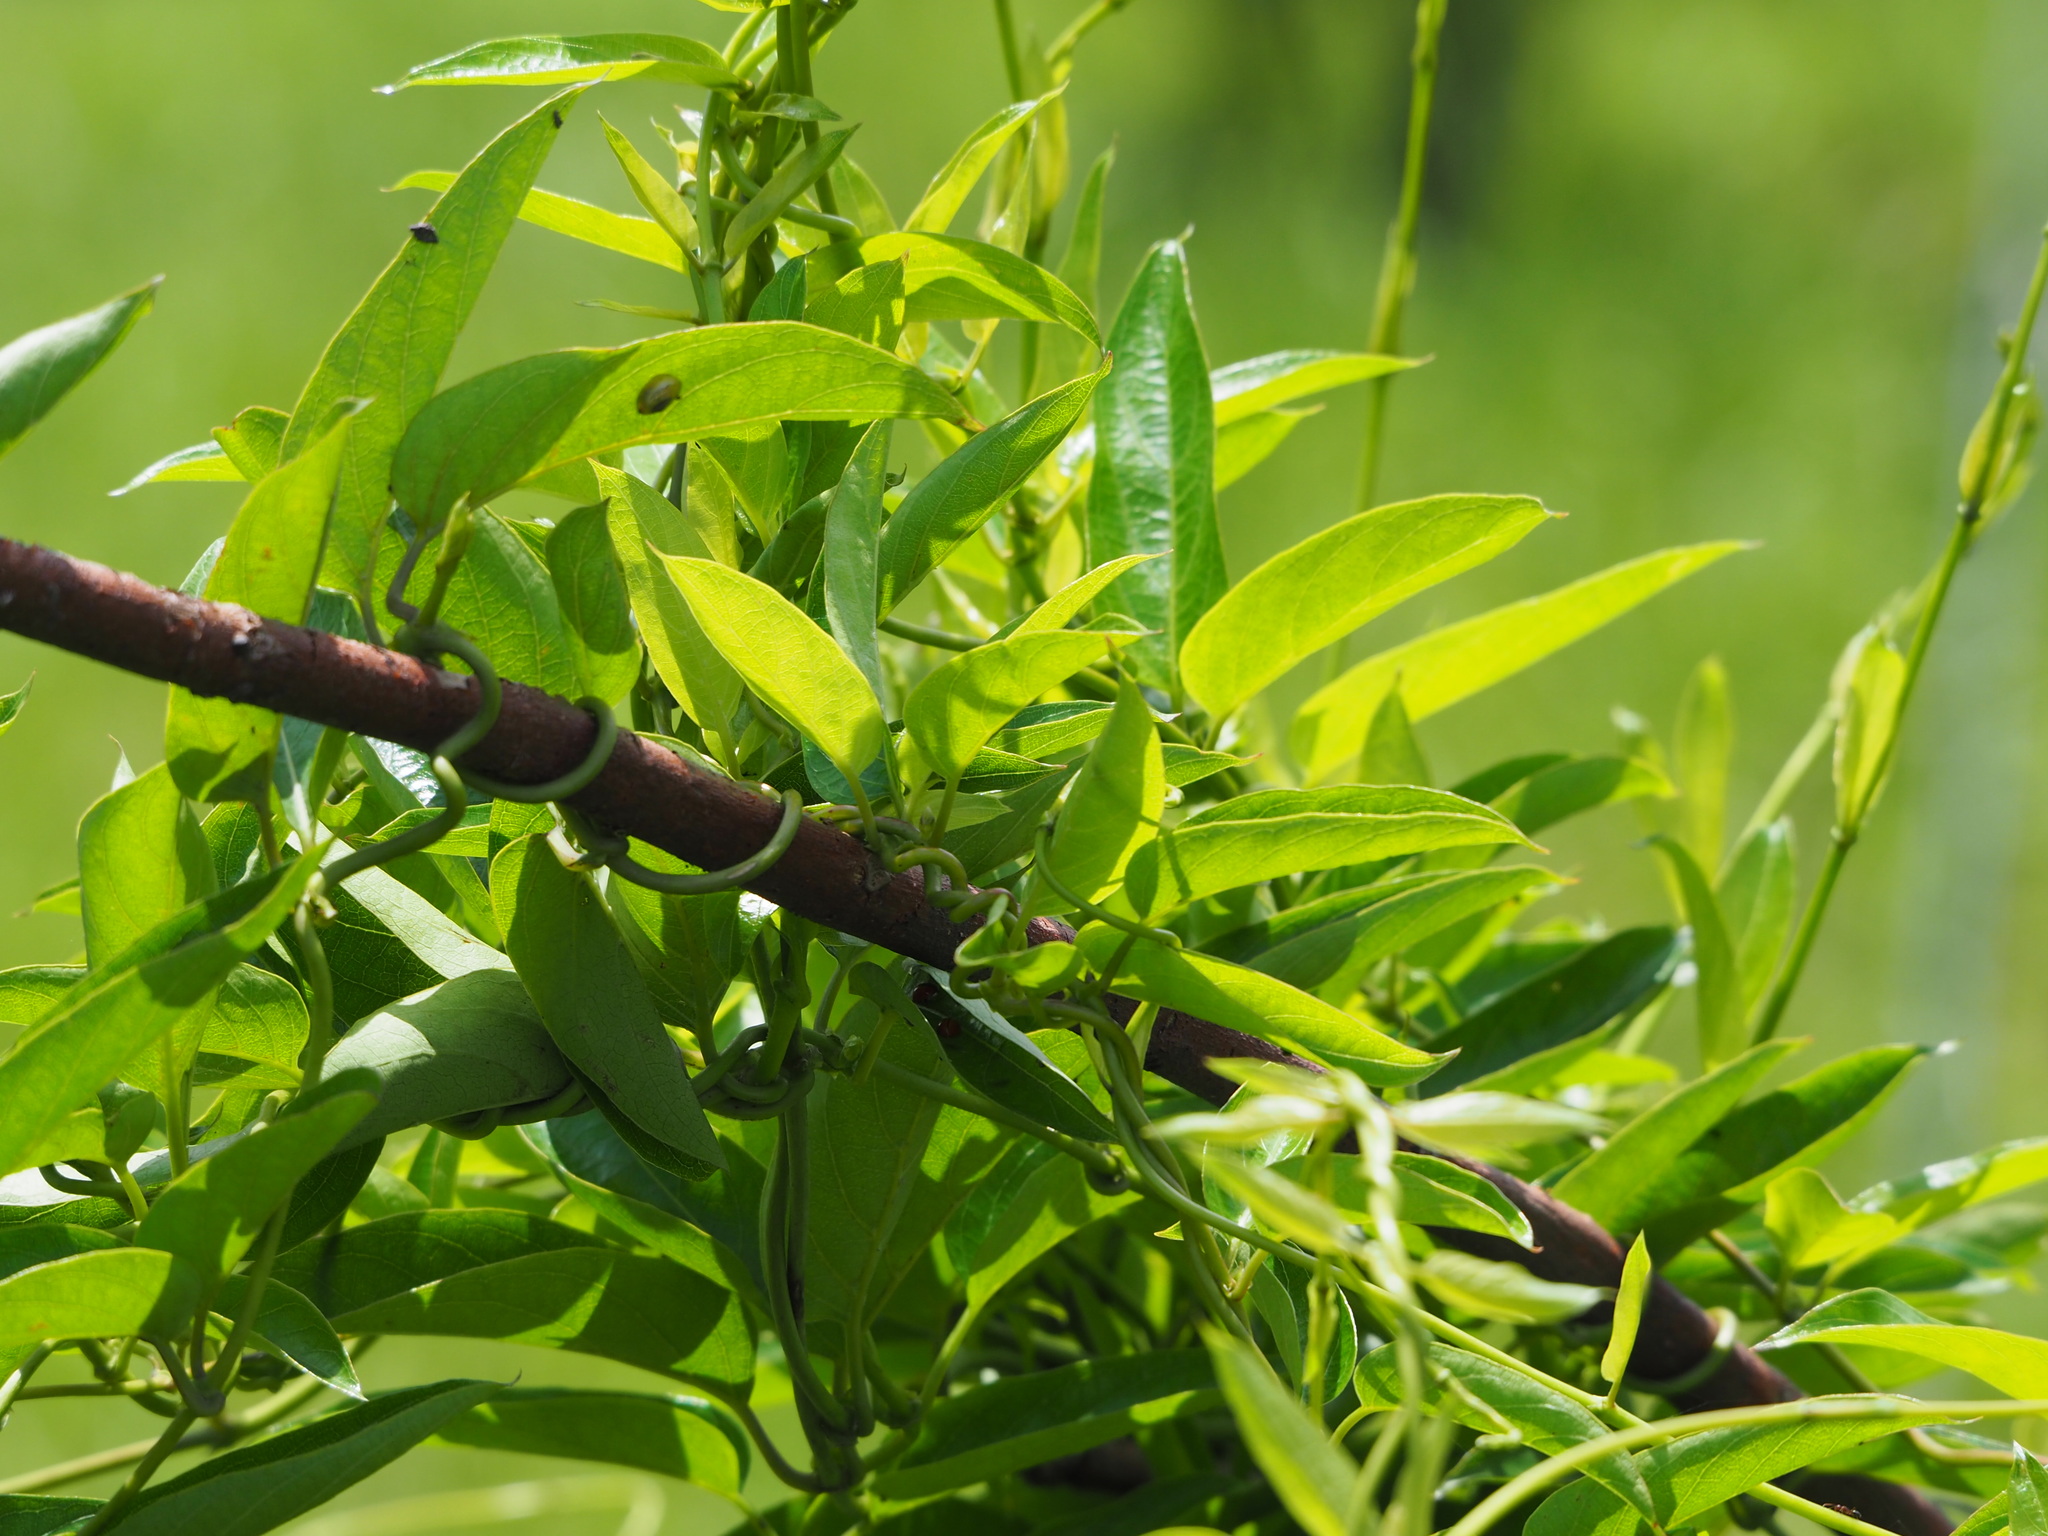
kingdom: Plantae
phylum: Tracheophyta
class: Magnoliopsida
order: Gentianales
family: Rubiaceae
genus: Paederia
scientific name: Paederia foetida
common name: Stinkvine
